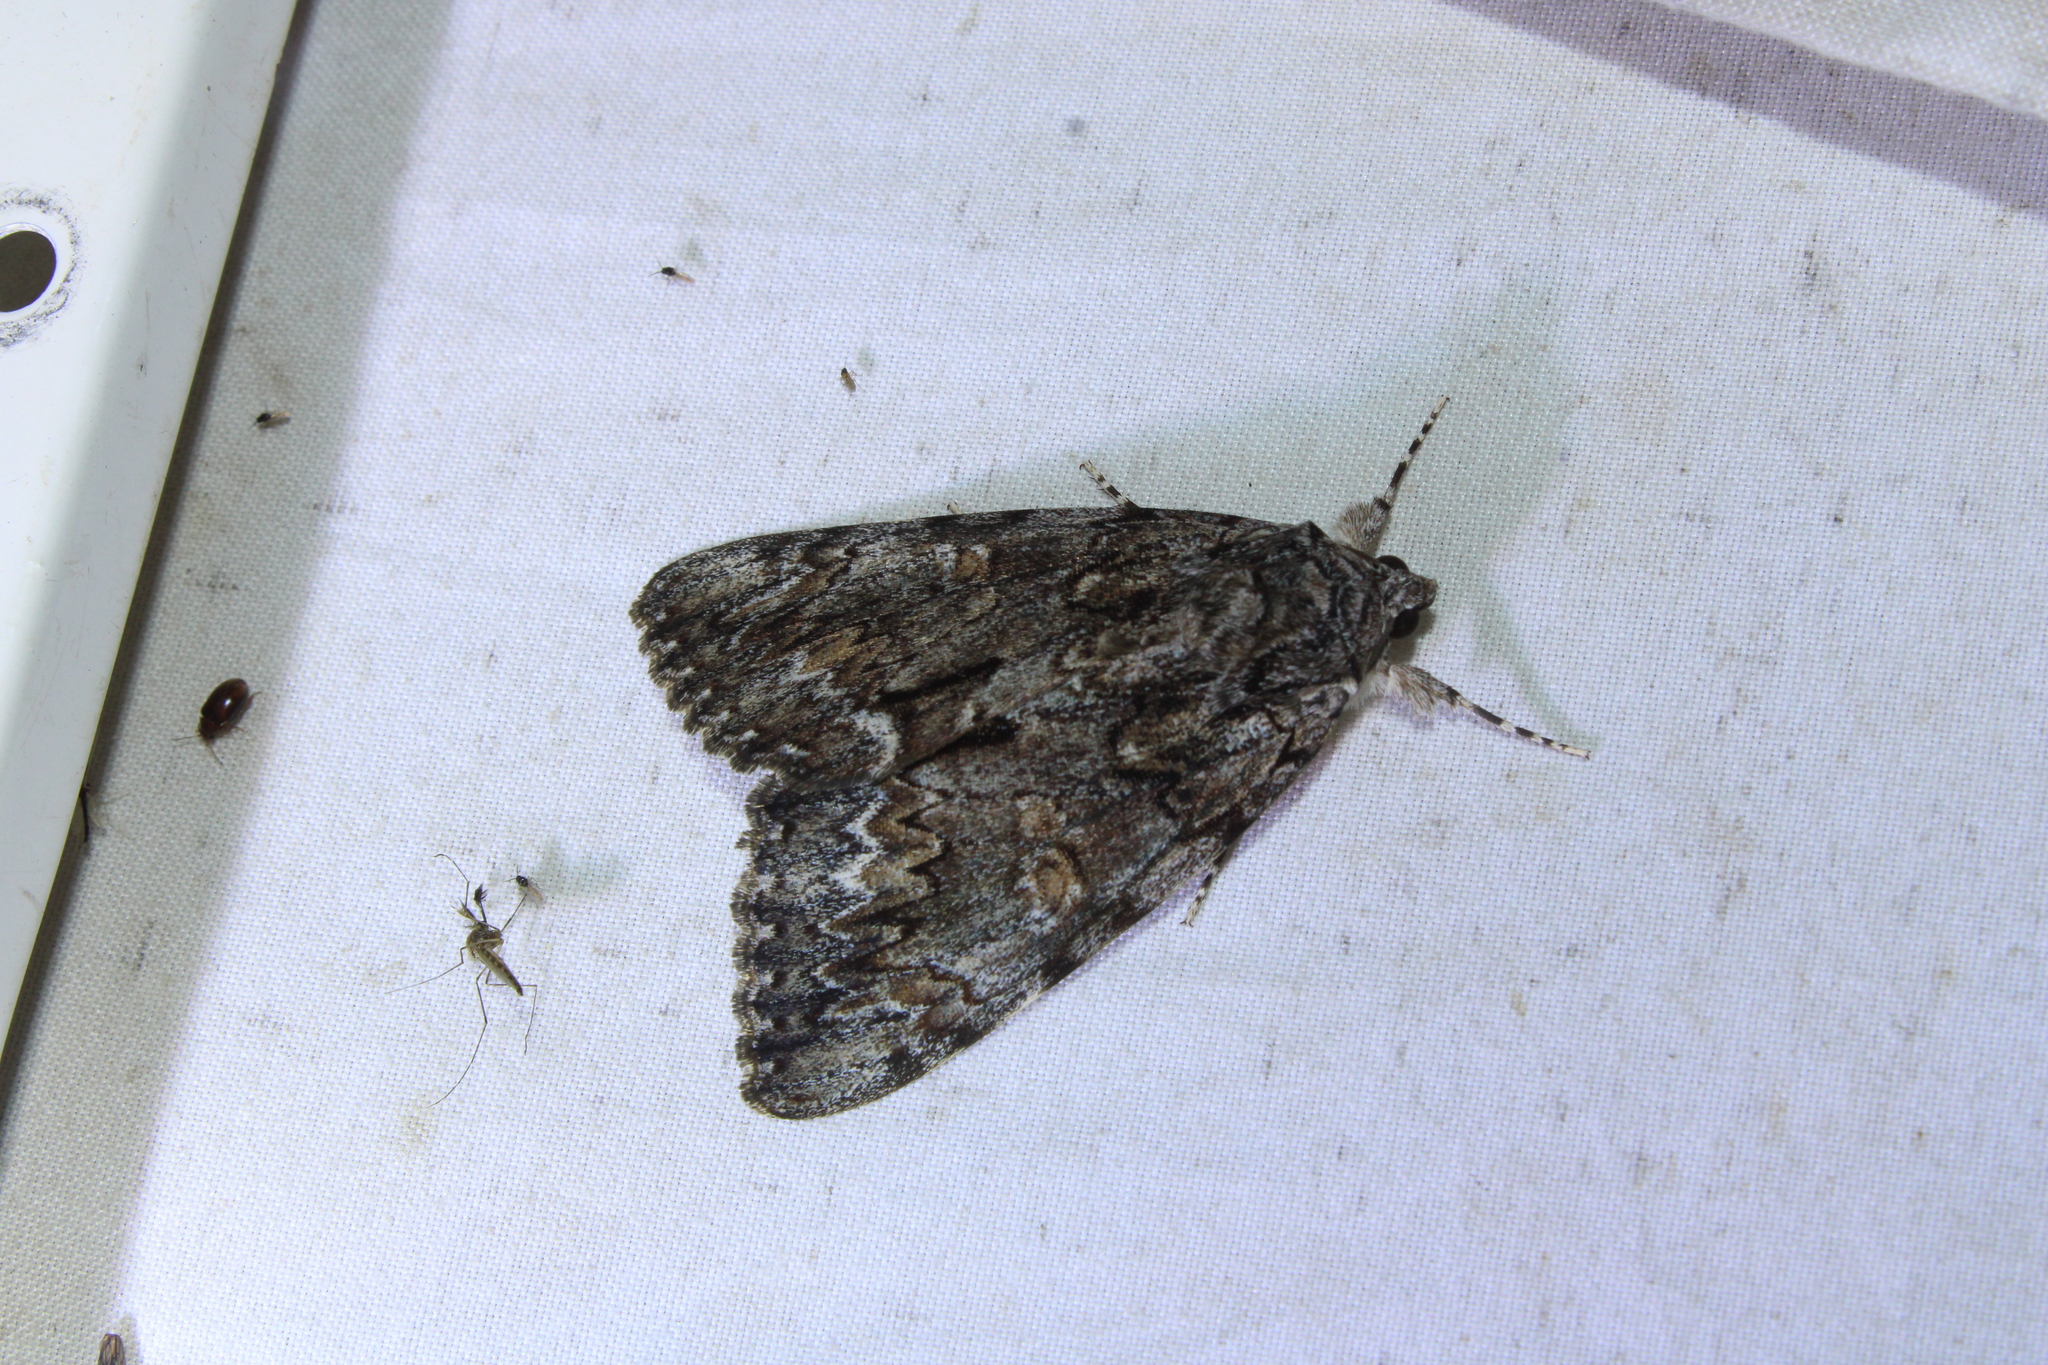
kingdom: Animalia
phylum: Arthropoda
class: Insecta
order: Lepidoptera
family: Erebidae
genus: Catocala
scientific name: Catocala palaeogama
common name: Oldwife underwing
